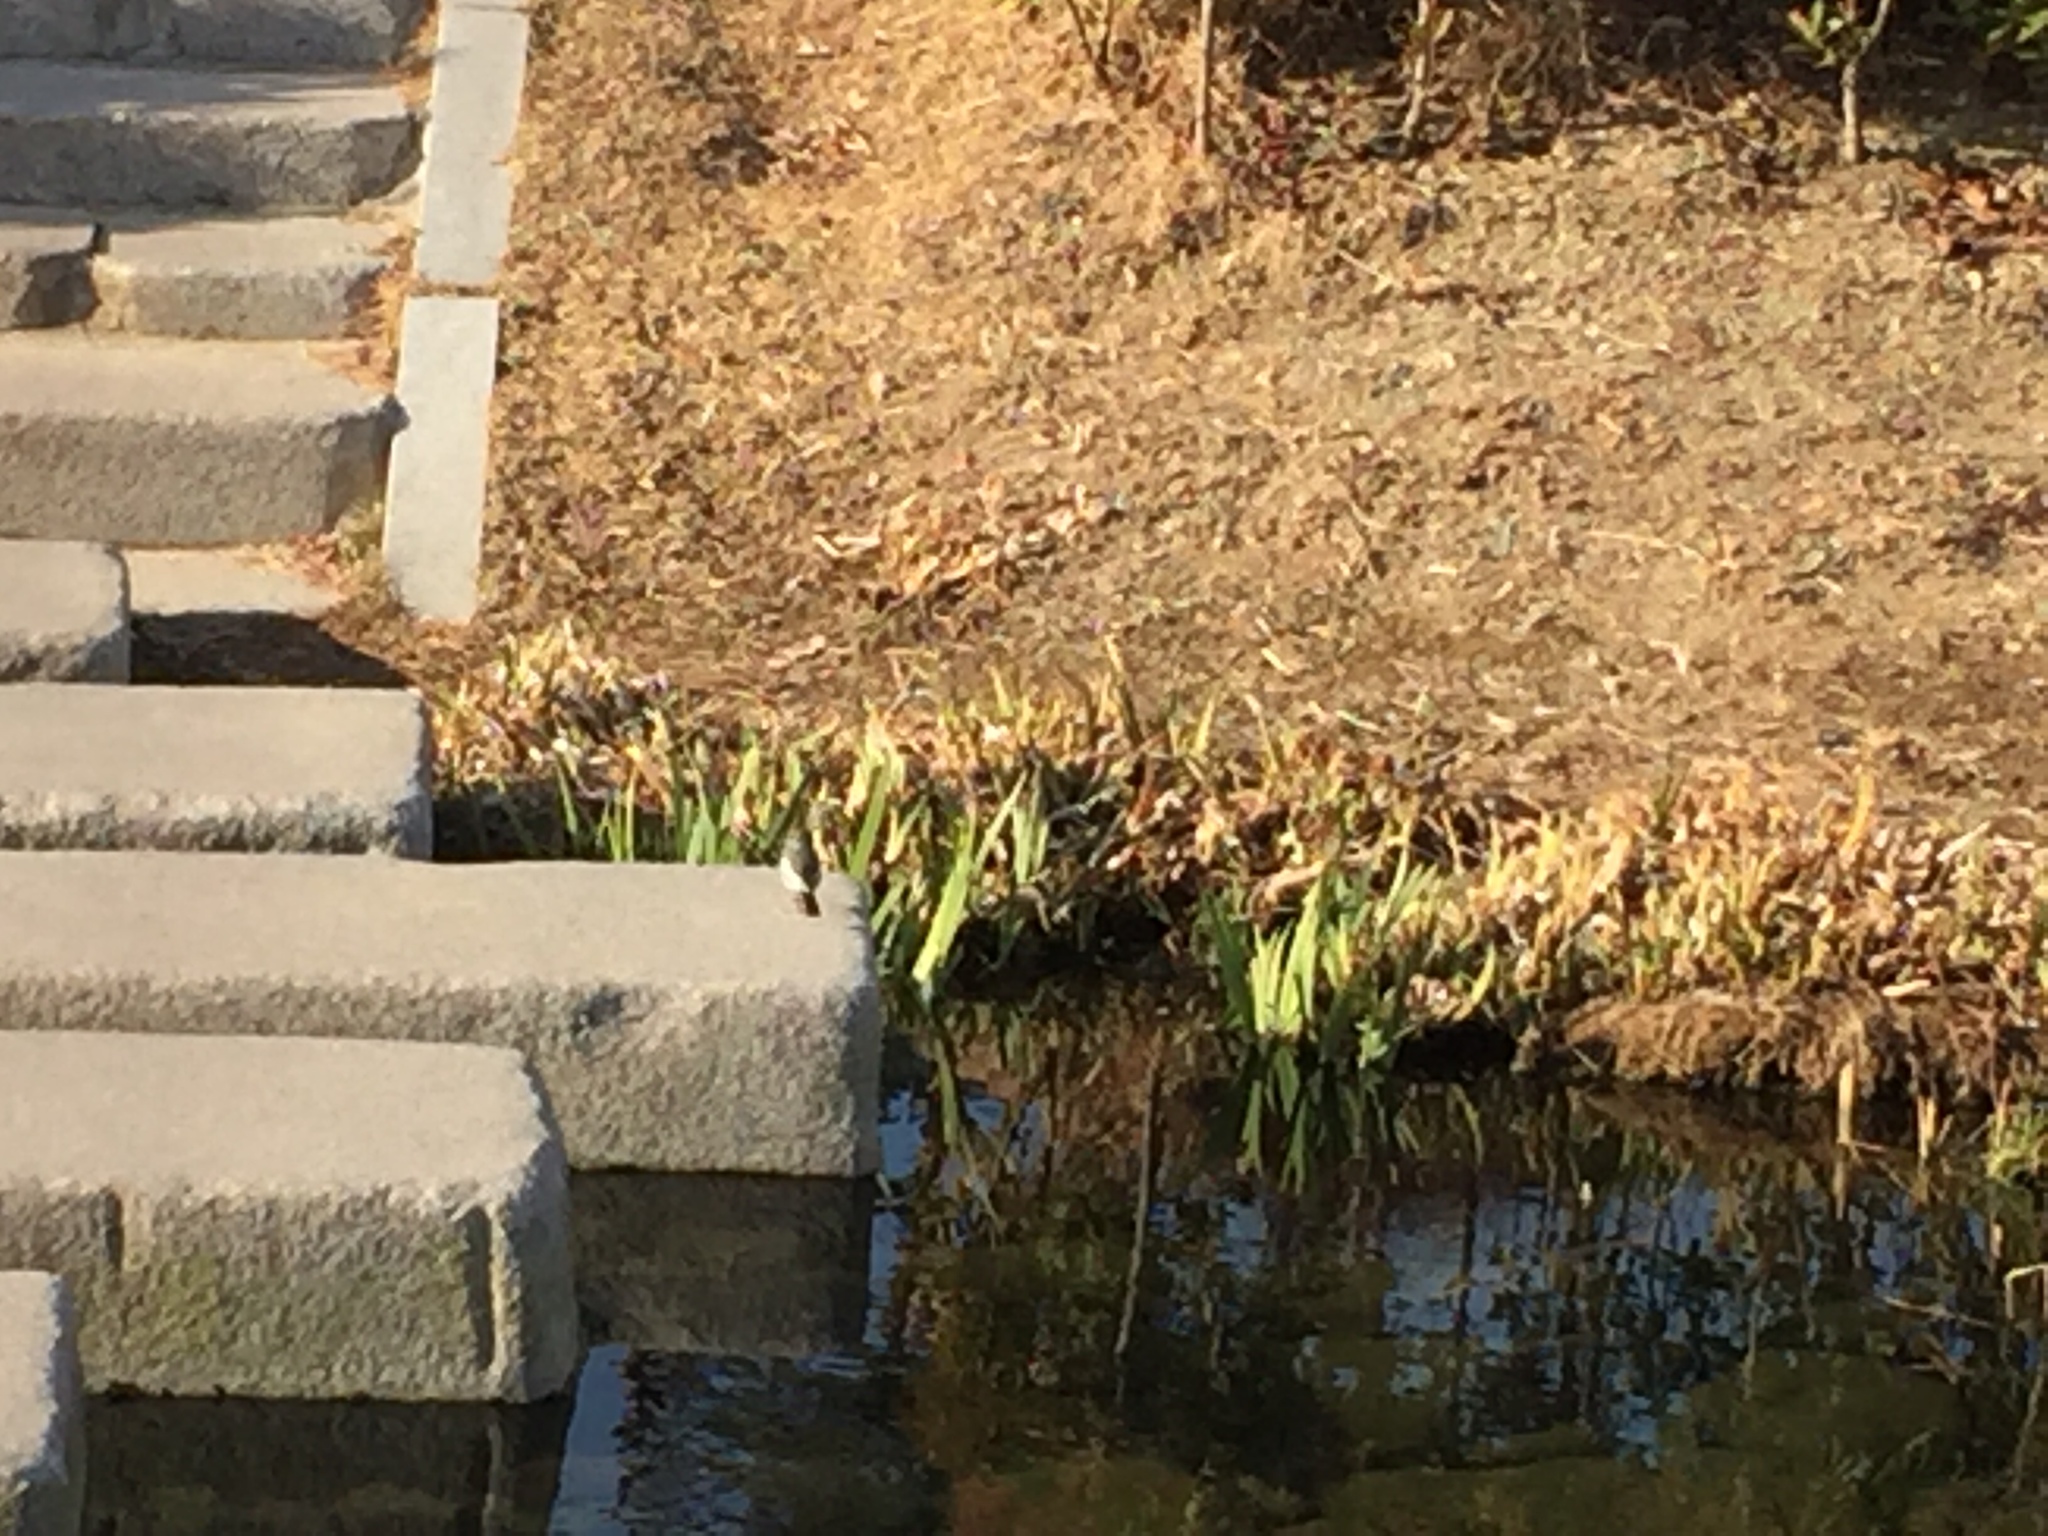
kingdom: Animalia
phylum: Chordata
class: Aves
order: Passeriformes
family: Motacillidae
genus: Motacilla
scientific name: Motacilla alba
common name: White wagtail
